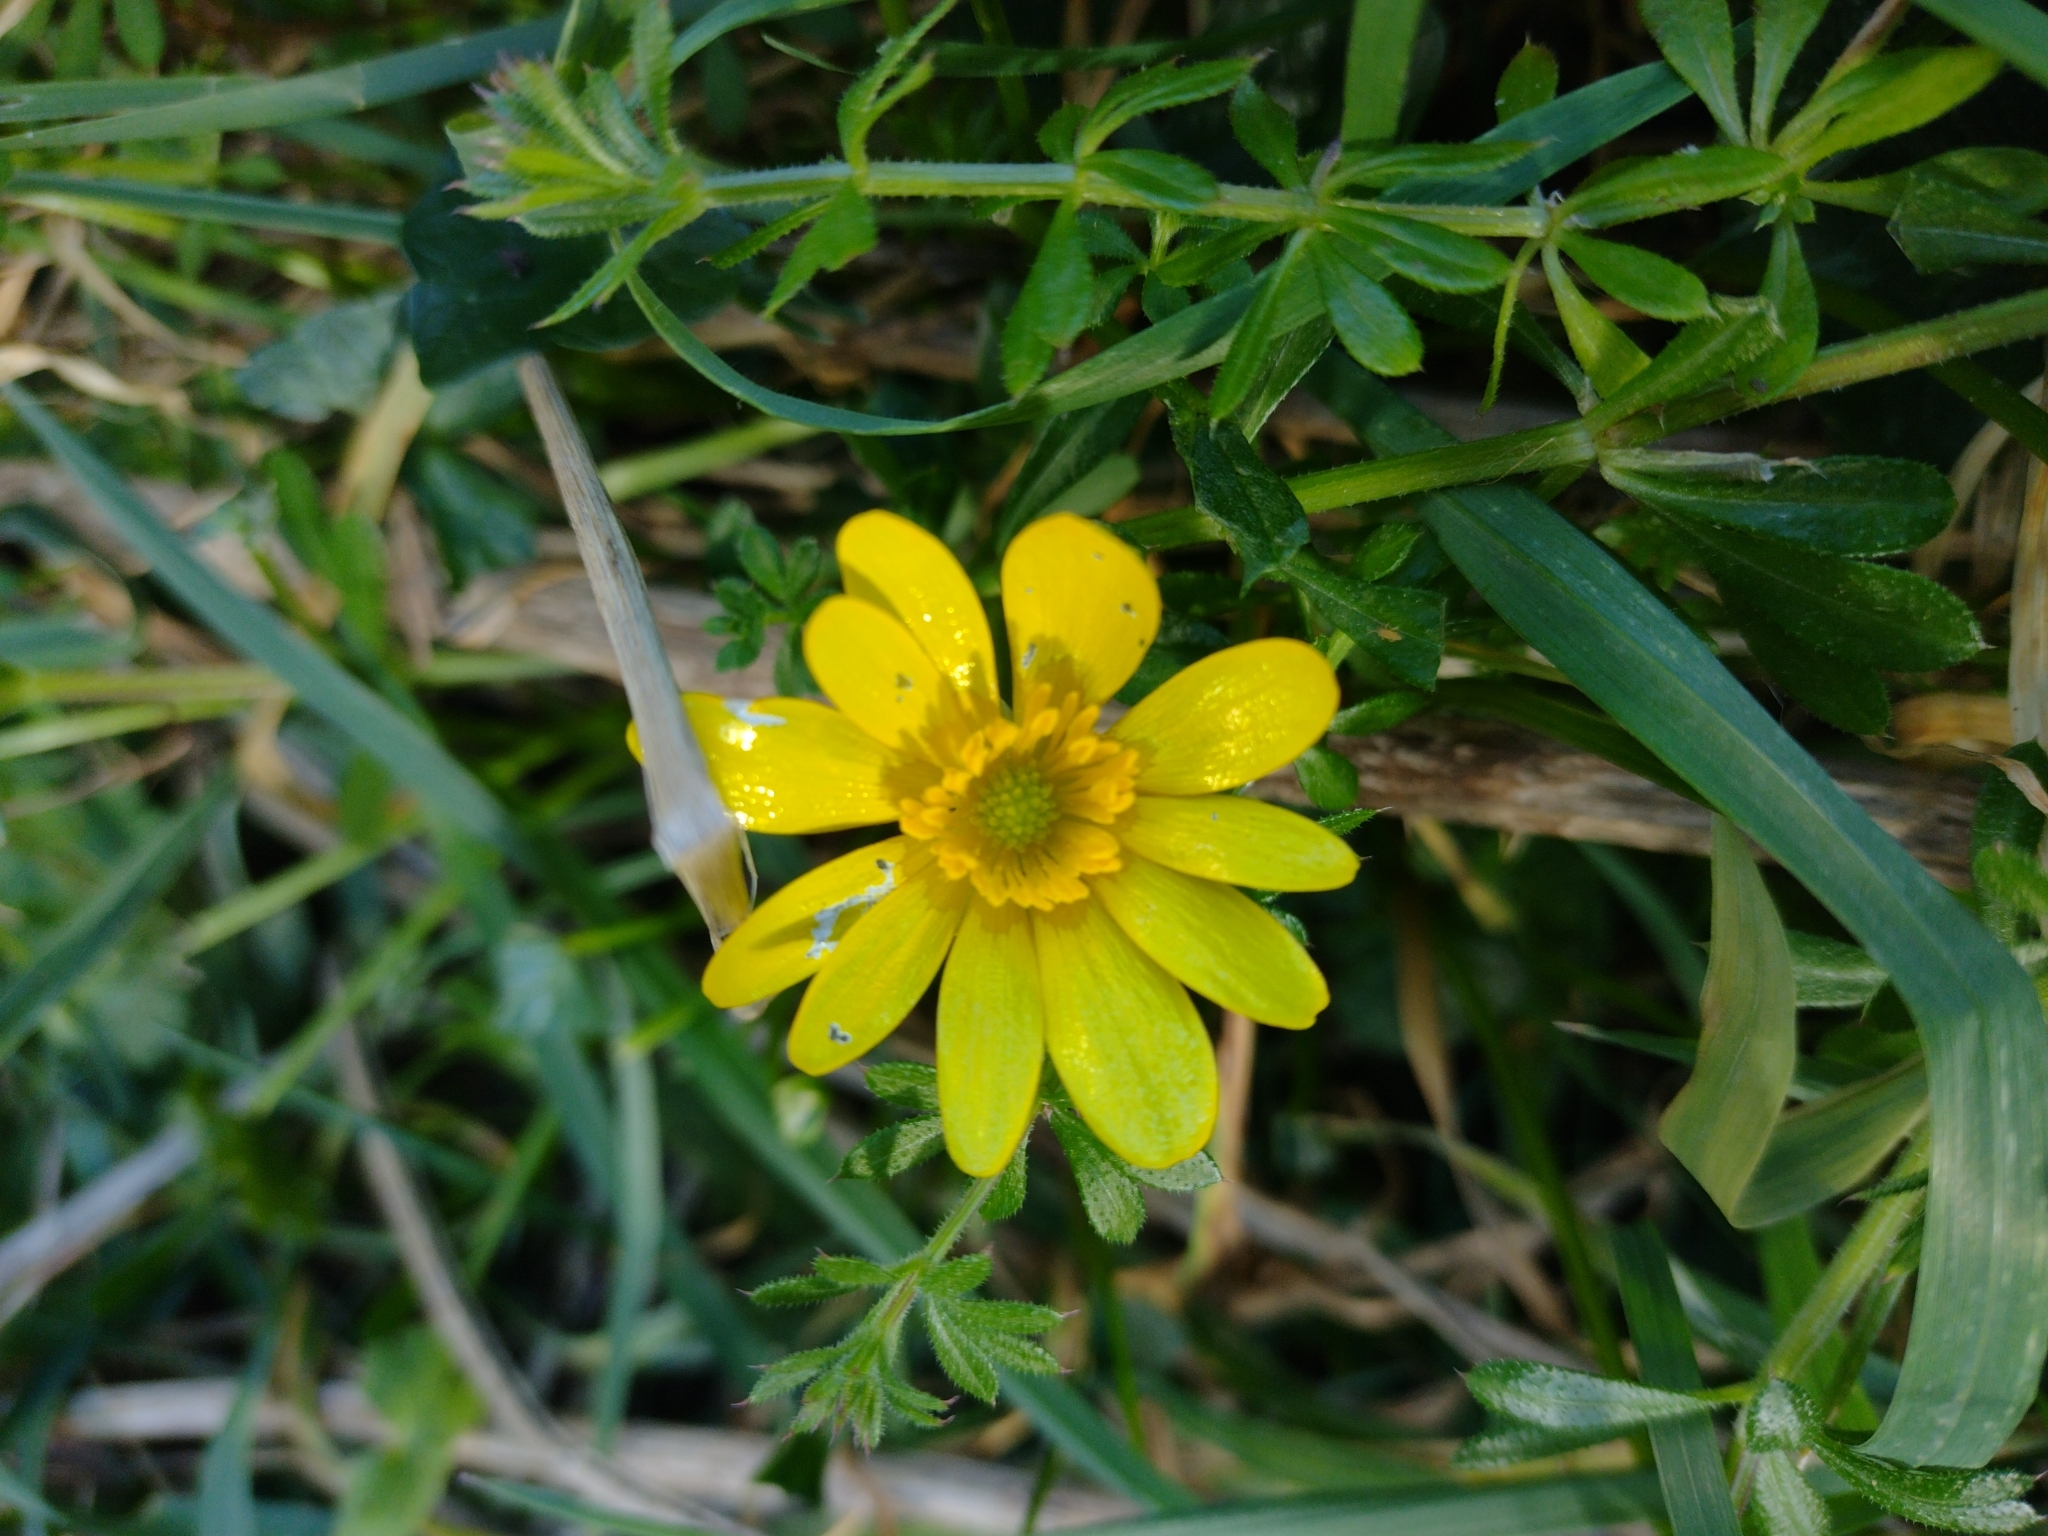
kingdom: Plantae
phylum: Tracheophyta
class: Magnoliopsida
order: Ranunculales
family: Ranunculaceae
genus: Ficaria
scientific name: Ficaria verna
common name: Lesser celandine
